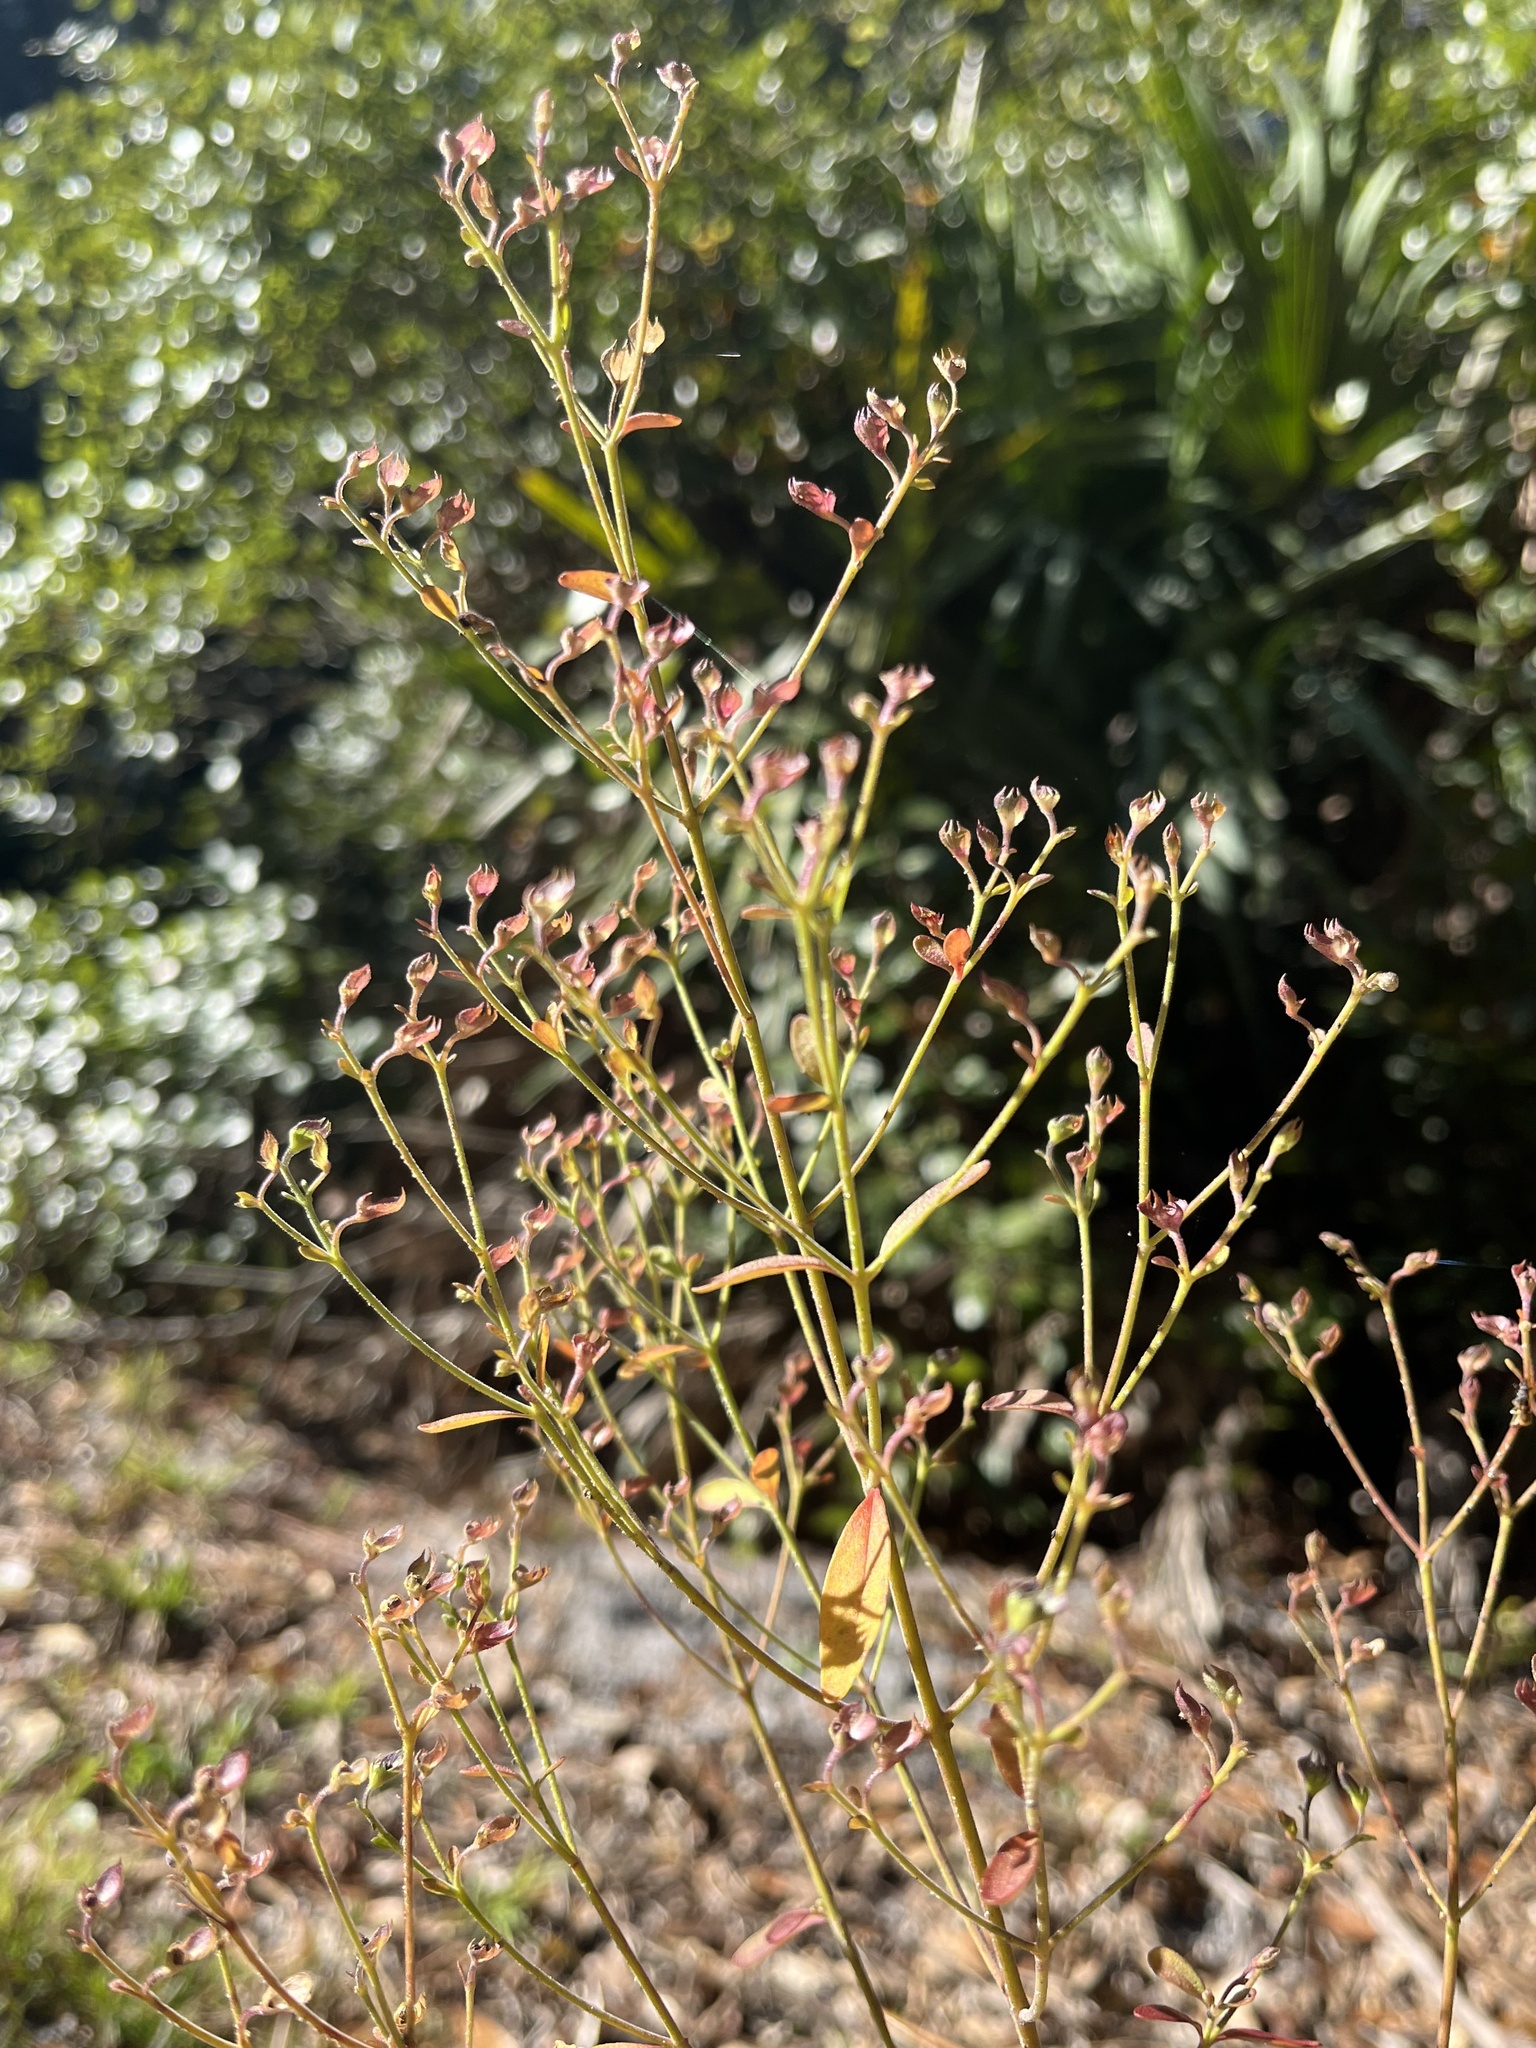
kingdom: Plantae
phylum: Tracheophyta
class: Magnoliopsida
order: Lamiales
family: Lamiaceae
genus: Trichostema
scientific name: Trichostema gracile
